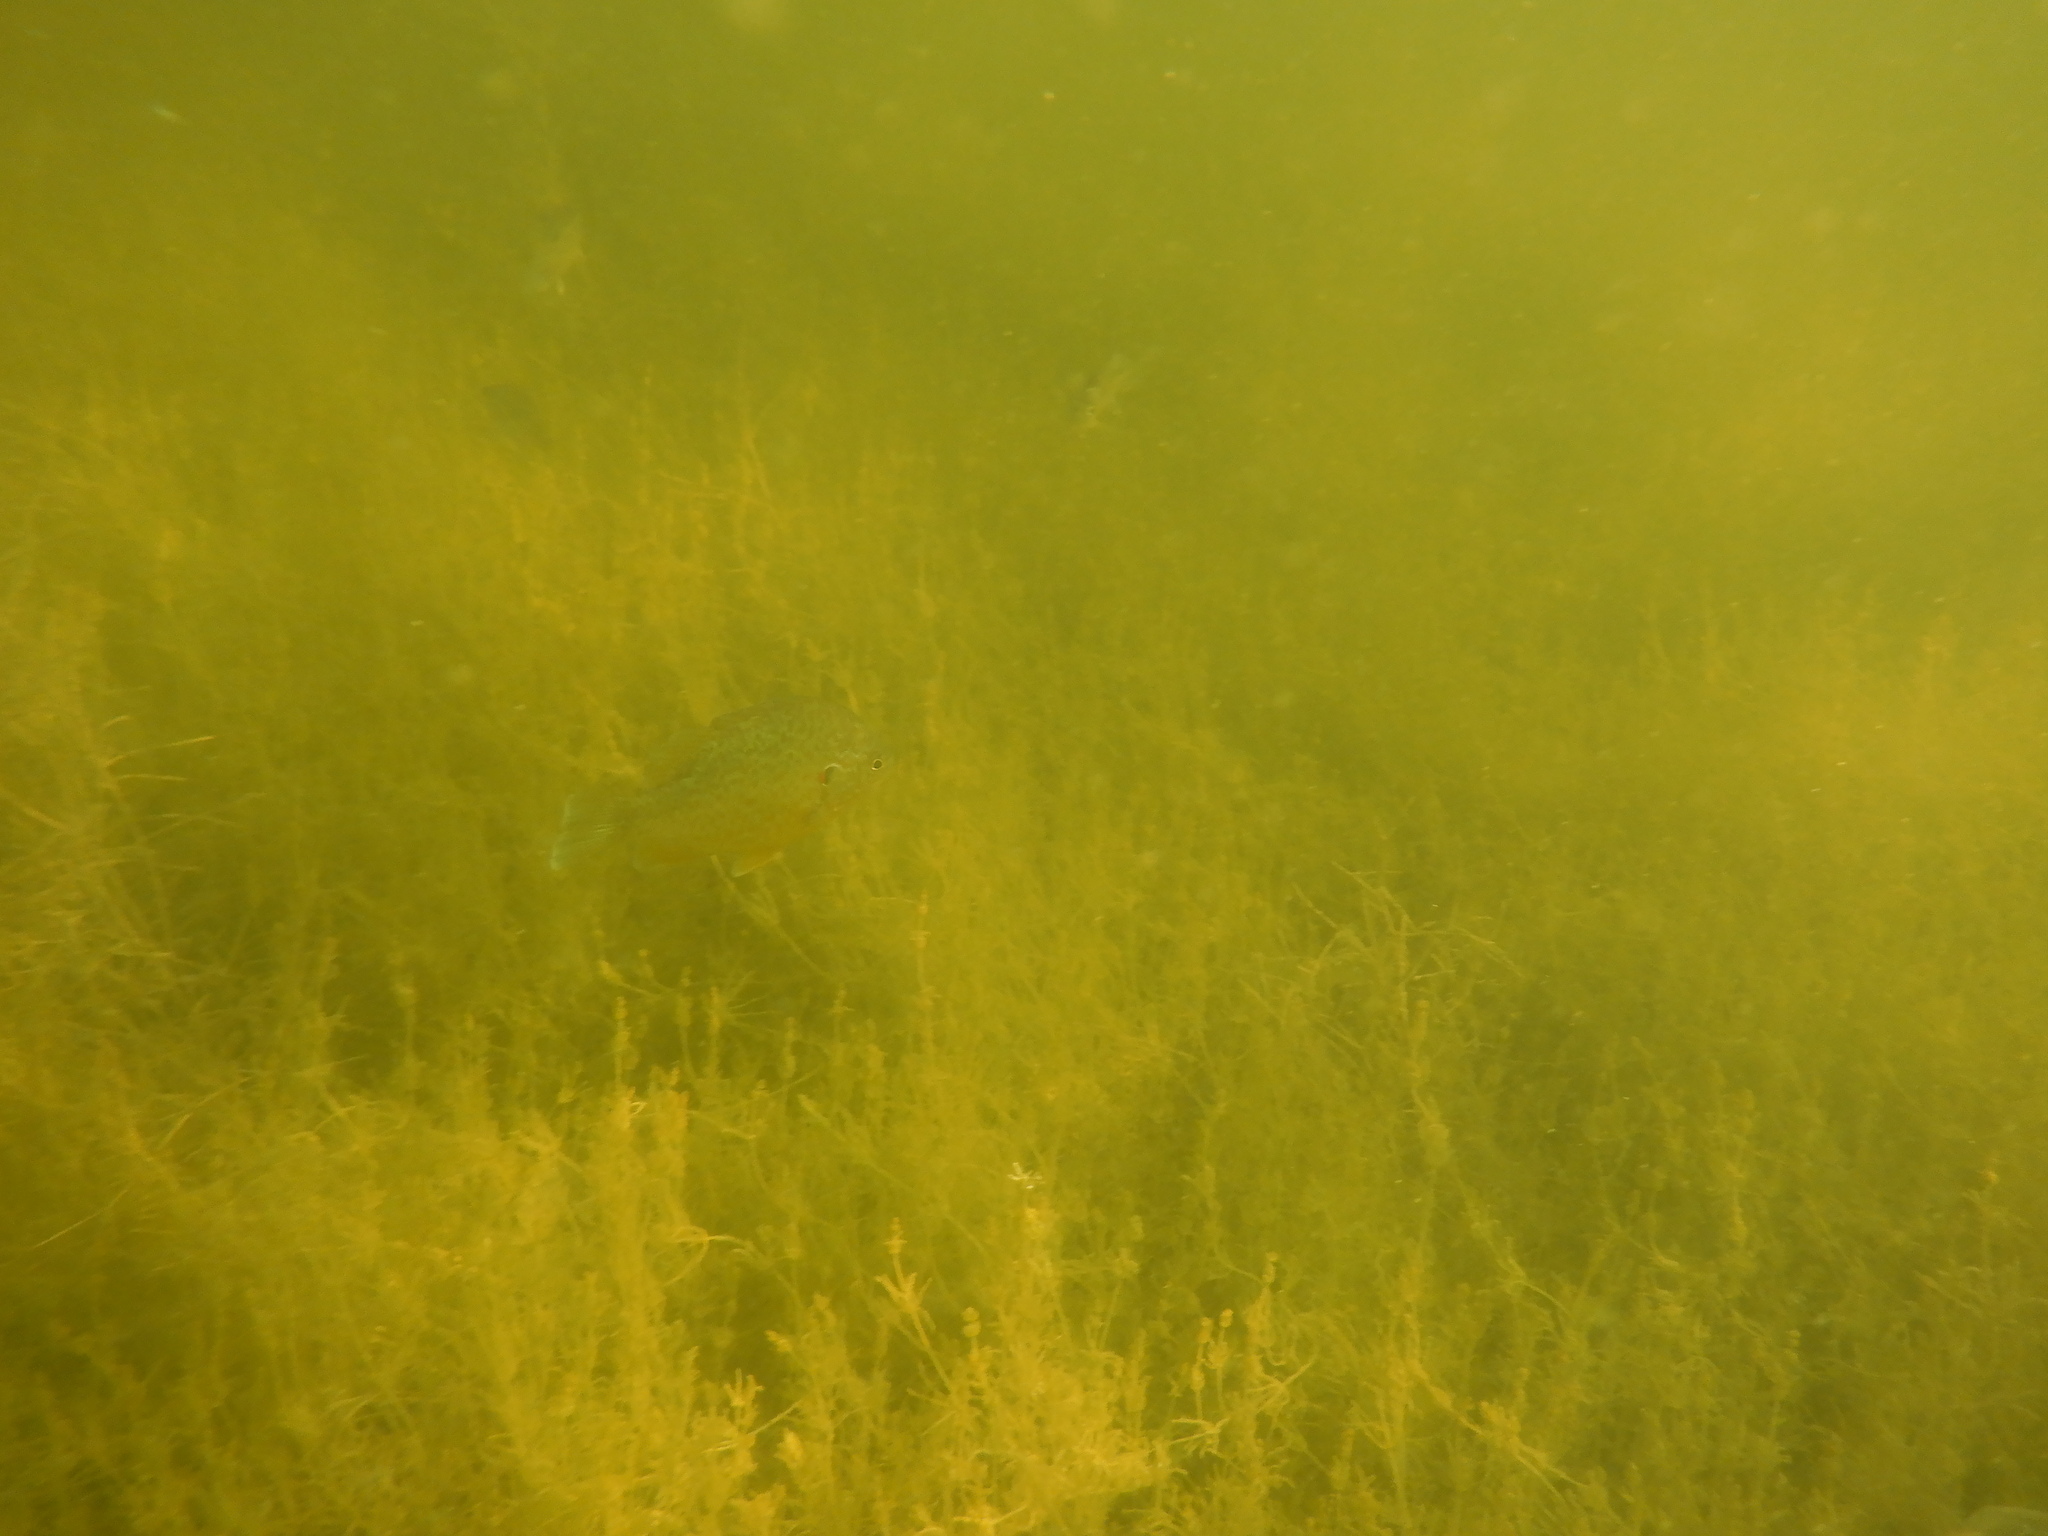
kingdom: Animalia
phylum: Chordata
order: Perciformes
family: Centrarchidae
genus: Lepomis
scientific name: Lepomis gibbosus
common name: Pumpkinseed
